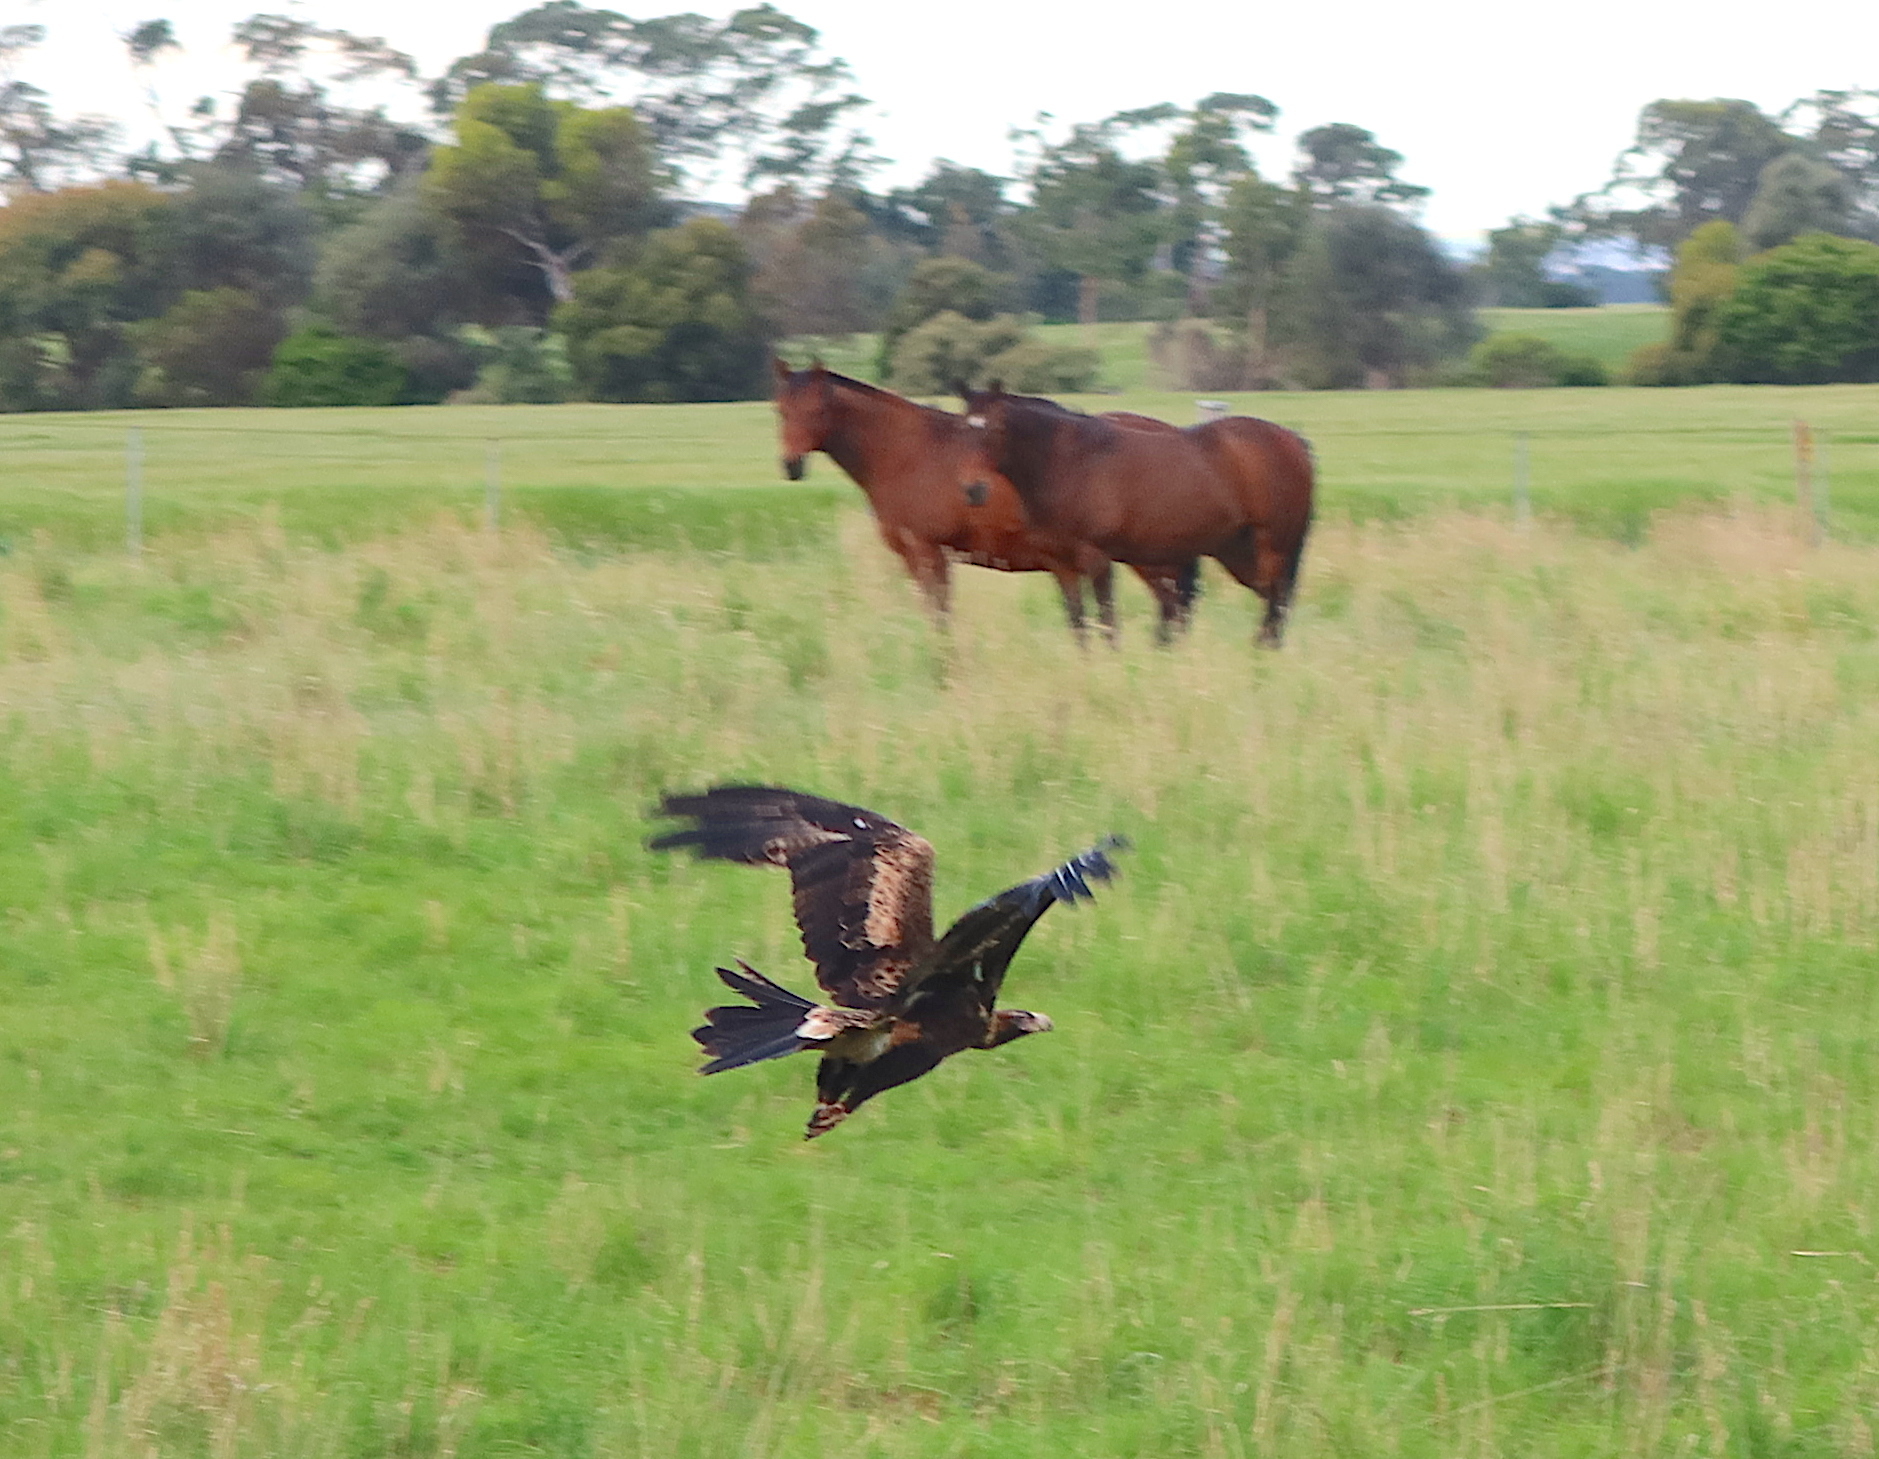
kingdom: Animalia
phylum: Chordata
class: Aves
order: Accipitriformes
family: Accipitridae
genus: Aquila
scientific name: Aquila audax
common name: Wedge-tailed eagle
